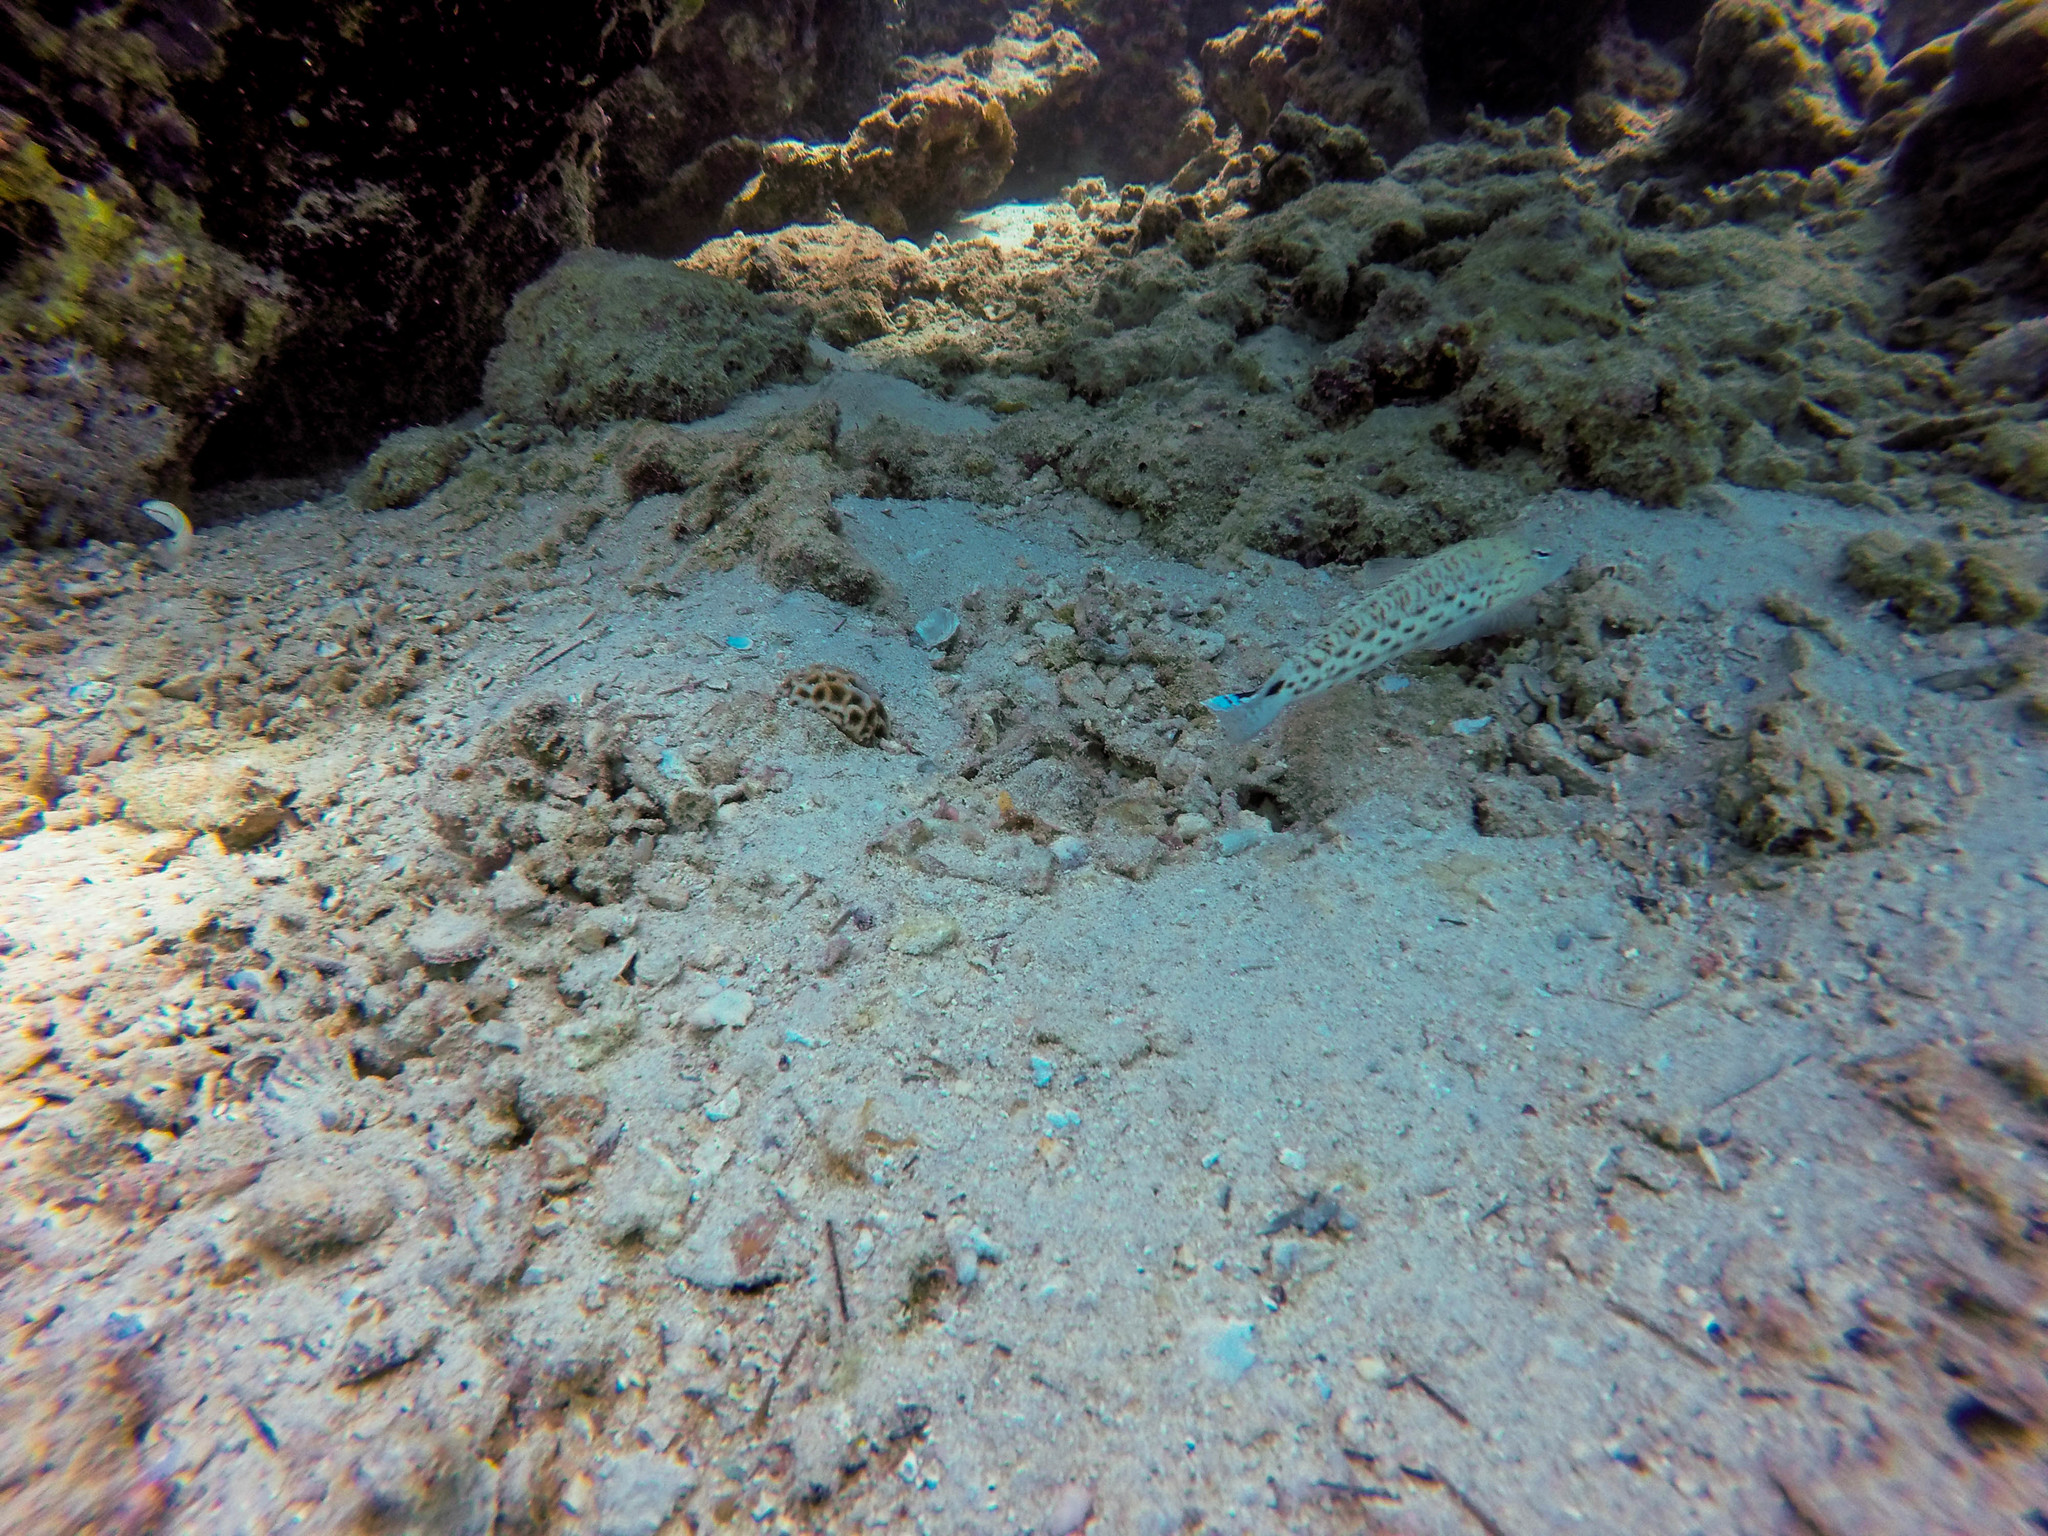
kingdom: Animalia
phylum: Chordata
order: Perciformes
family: Pinguipedidae
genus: Parapercis
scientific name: Parapercis hexophtalma
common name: Speckled sandperch
